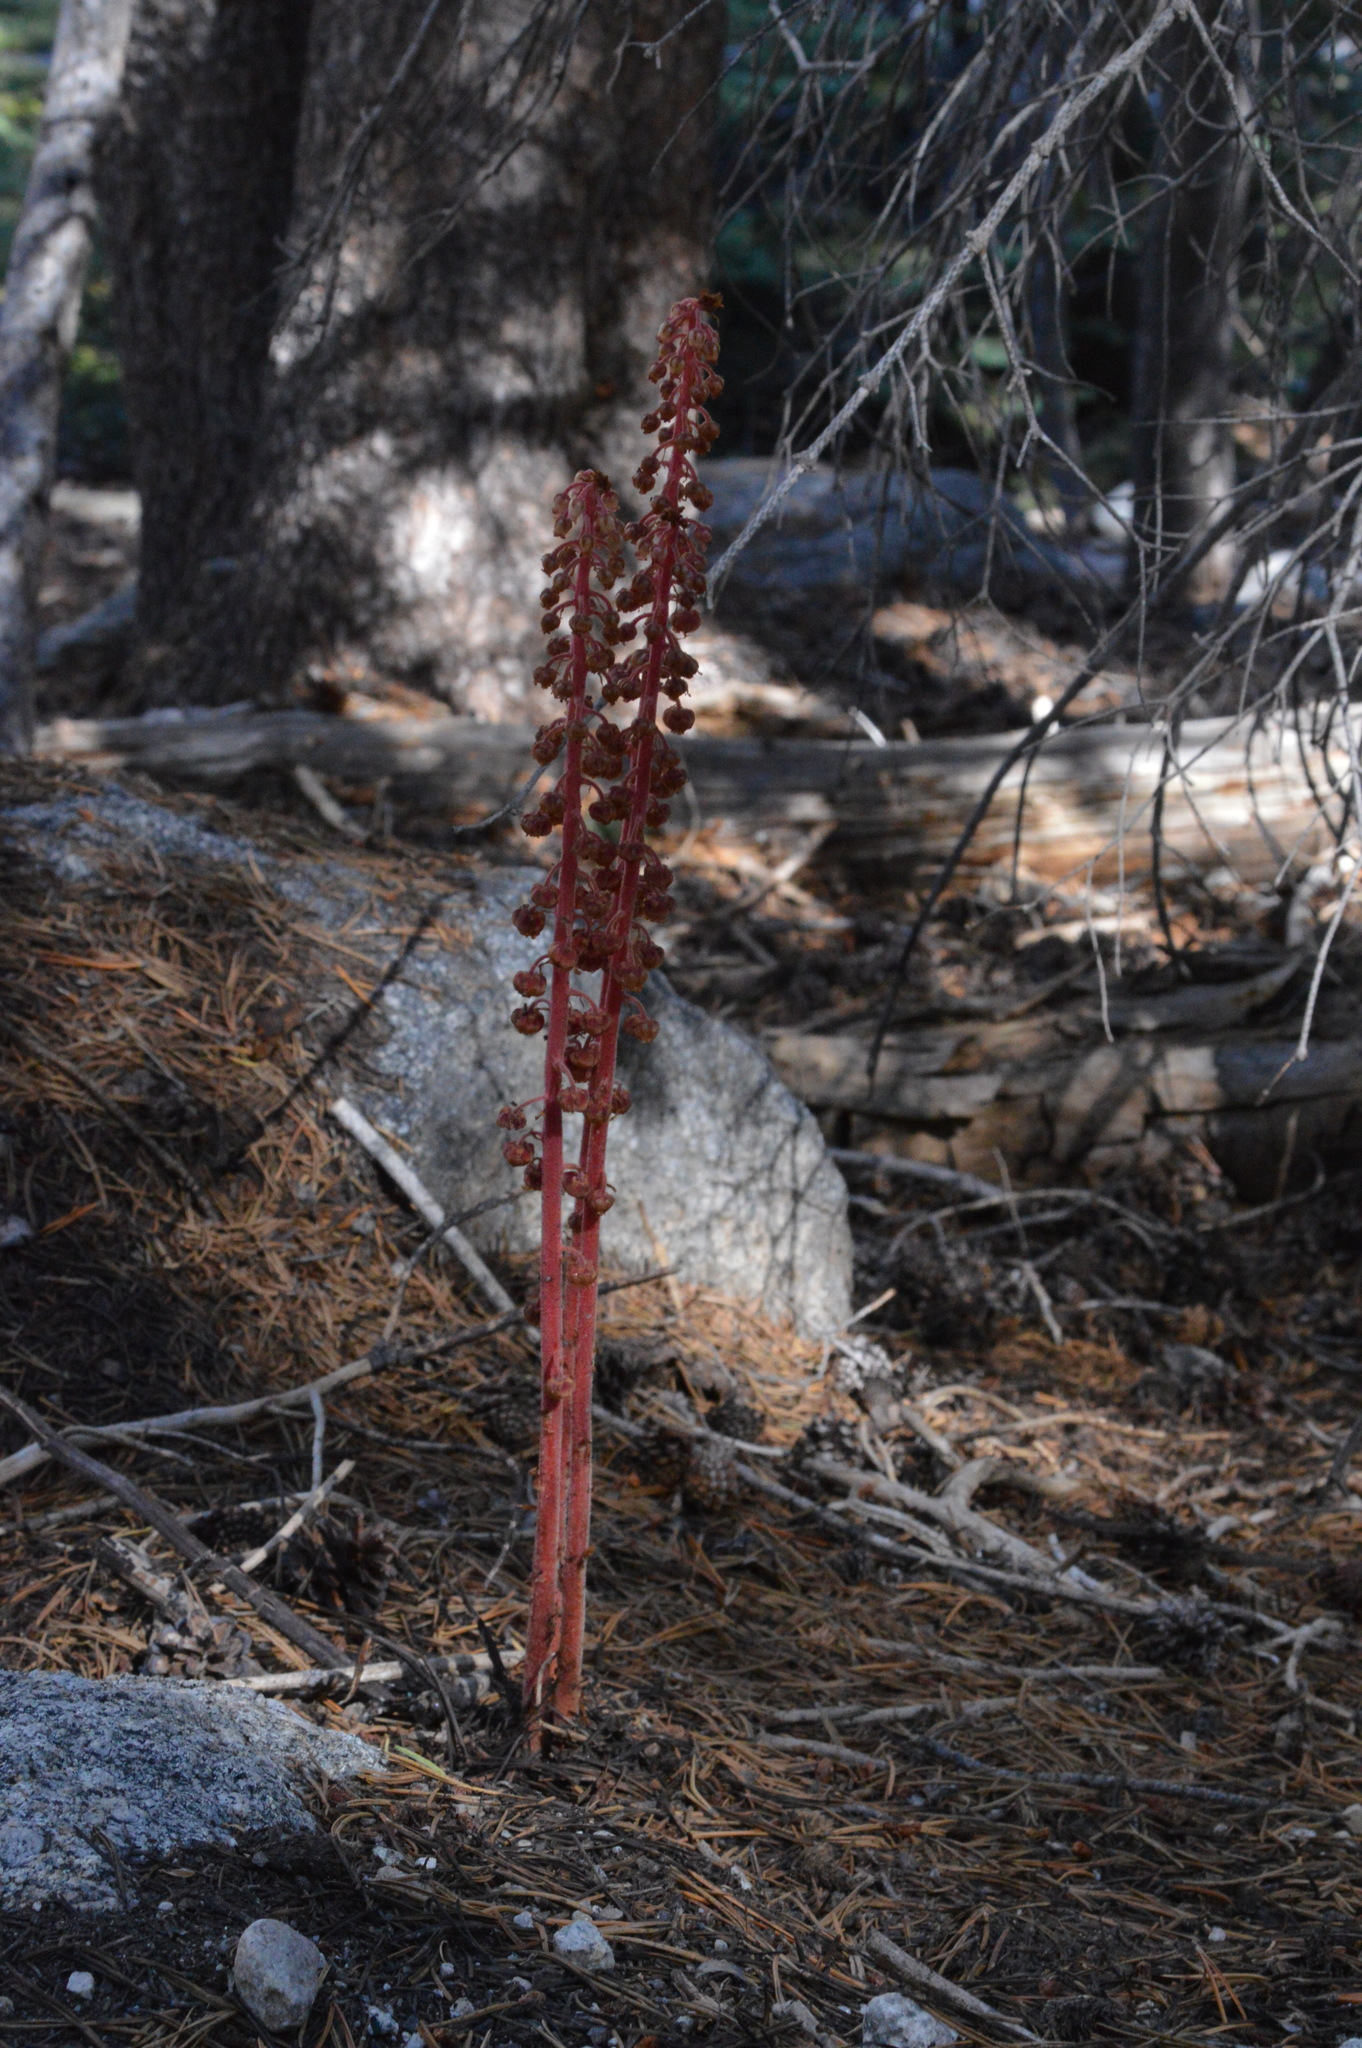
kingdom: Plantae
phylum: Tracheophyta
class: Magnoliopsida
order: Ericales
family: Ericaceae
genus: Pterospora
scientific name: Pterospora andromedea
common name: Giant bird's-nest
